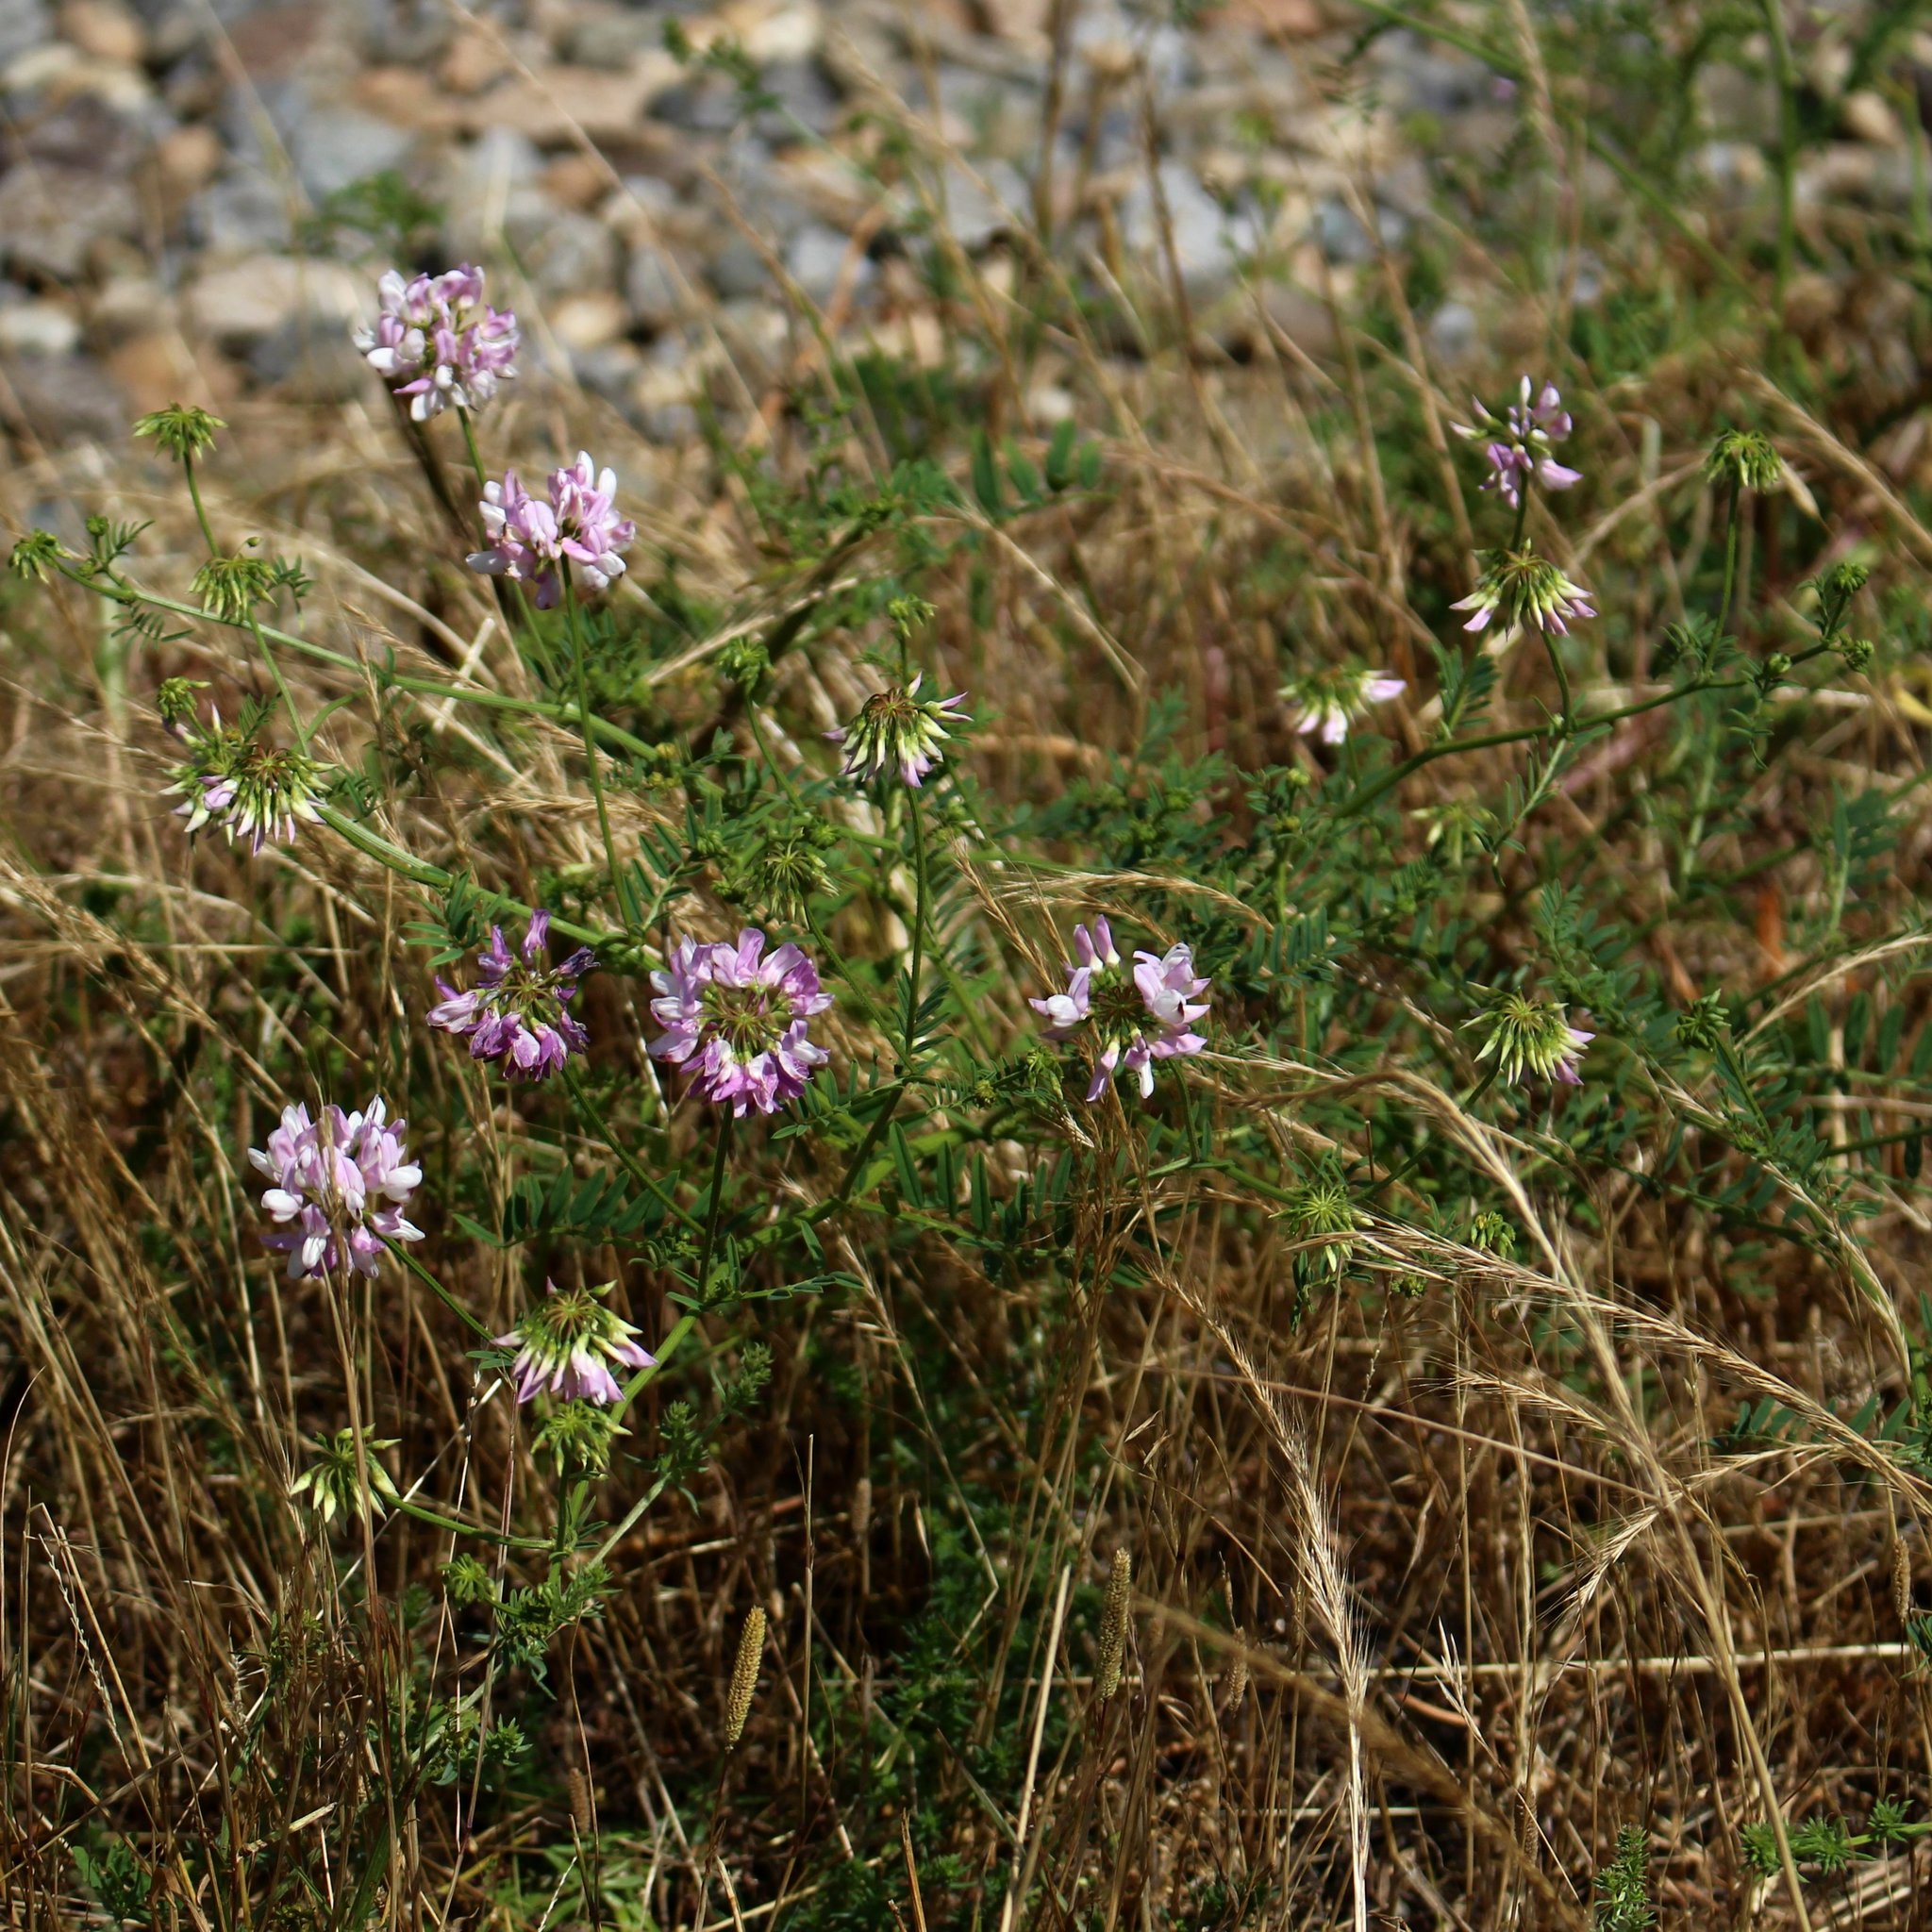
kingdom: Plantae
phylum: Tracheophyta
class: Magnoliopsida
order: Fabales
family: Fabaceae
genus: Coronilla
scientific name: Coronilla varia
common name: Crownvetch
